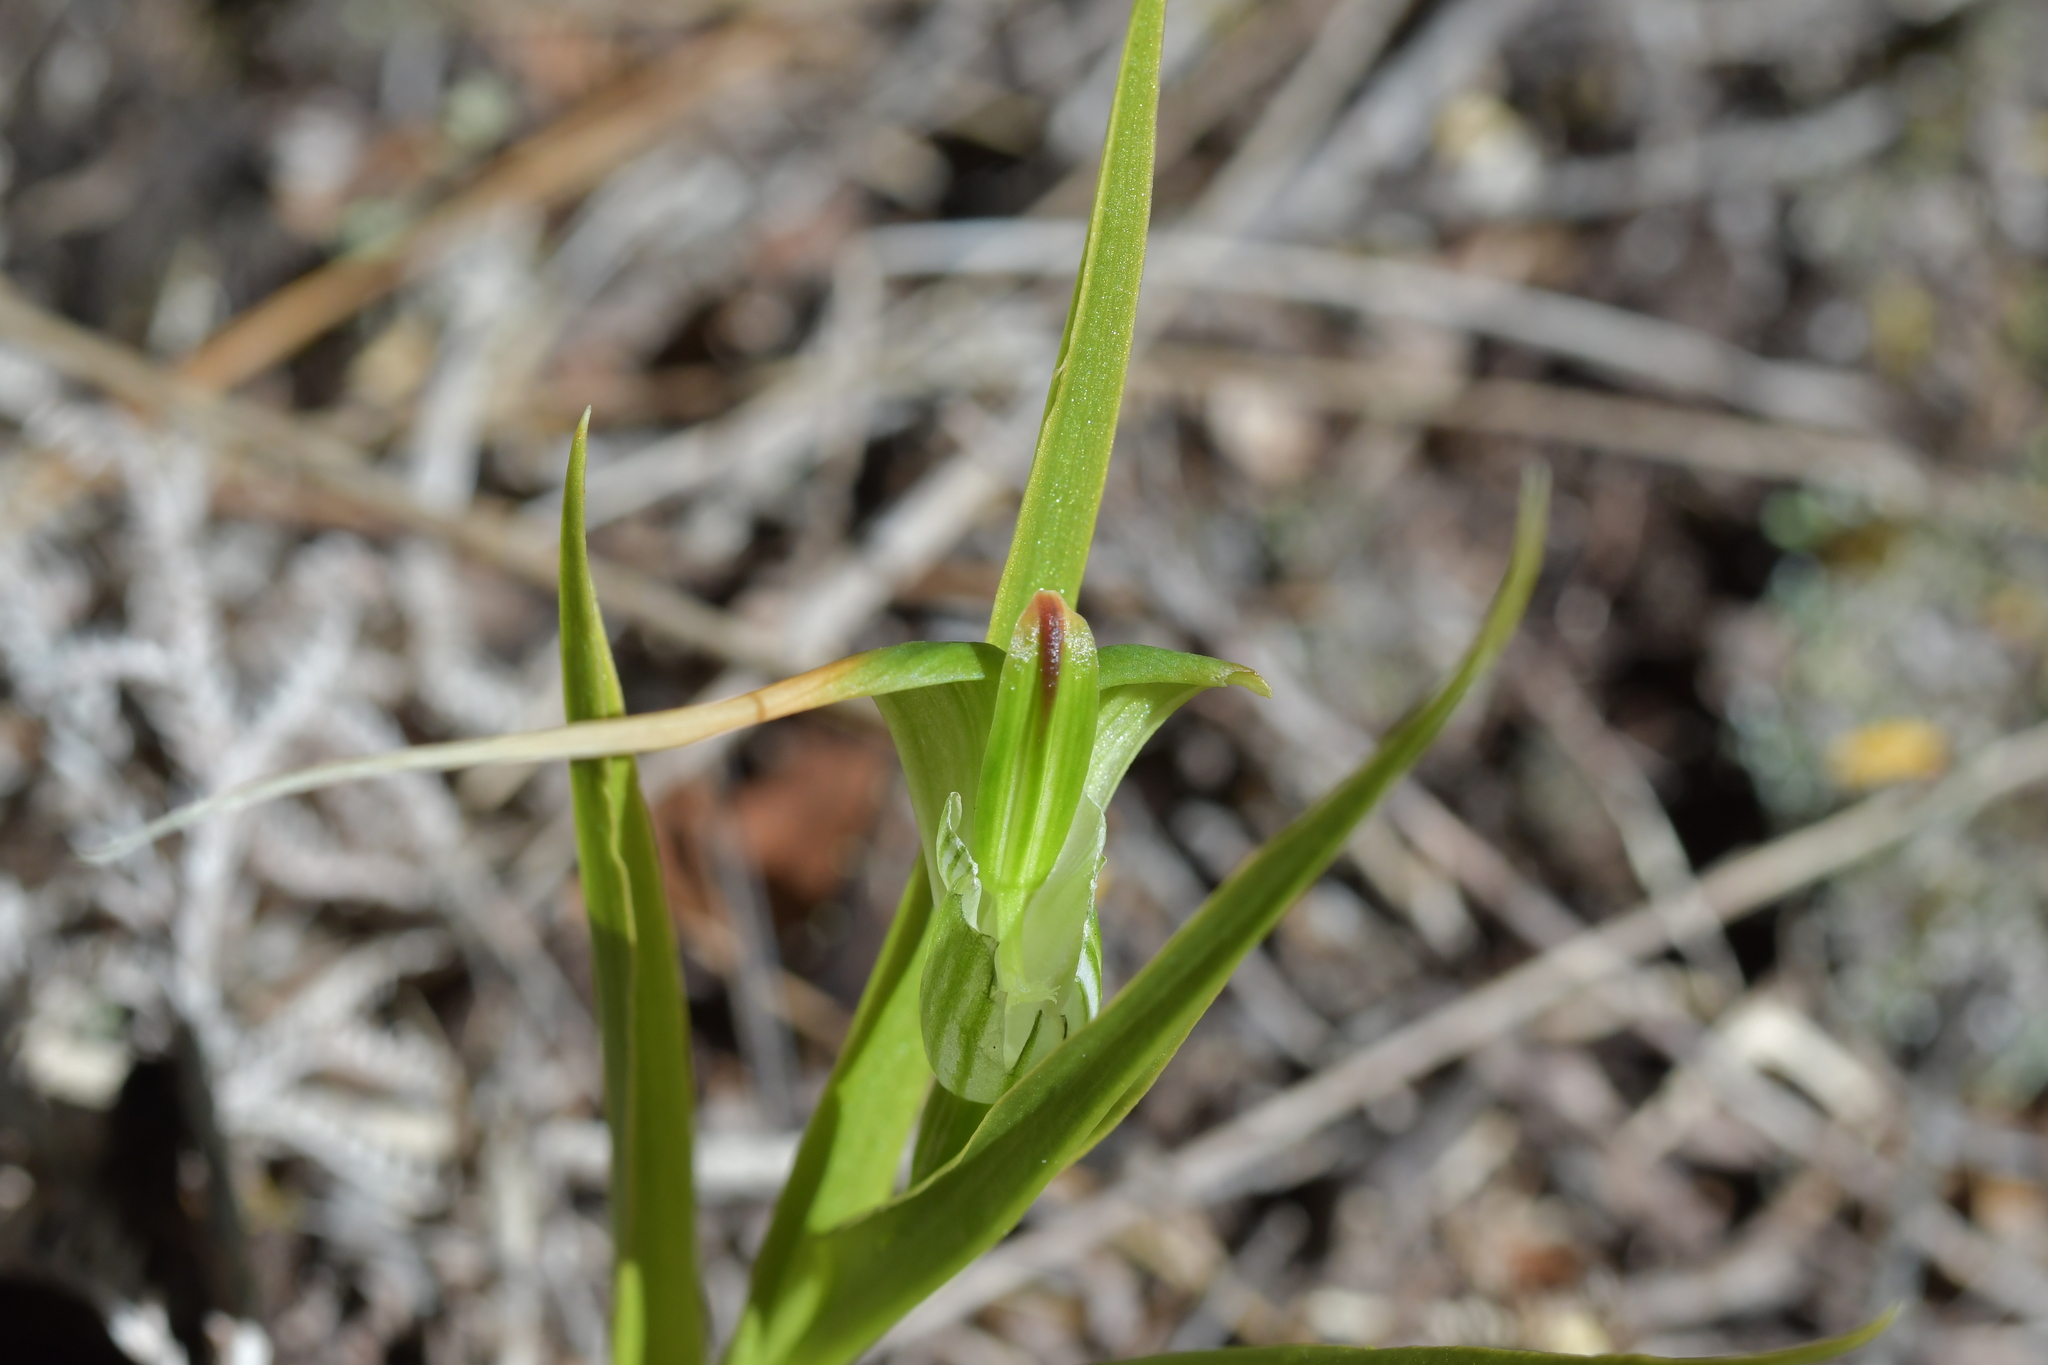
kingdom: Plantae
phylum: Tracheophyta
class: Liliopsida
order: Asparagales
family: Orchidaceae
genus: Pterostylis
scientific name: Pterostylis banksii
